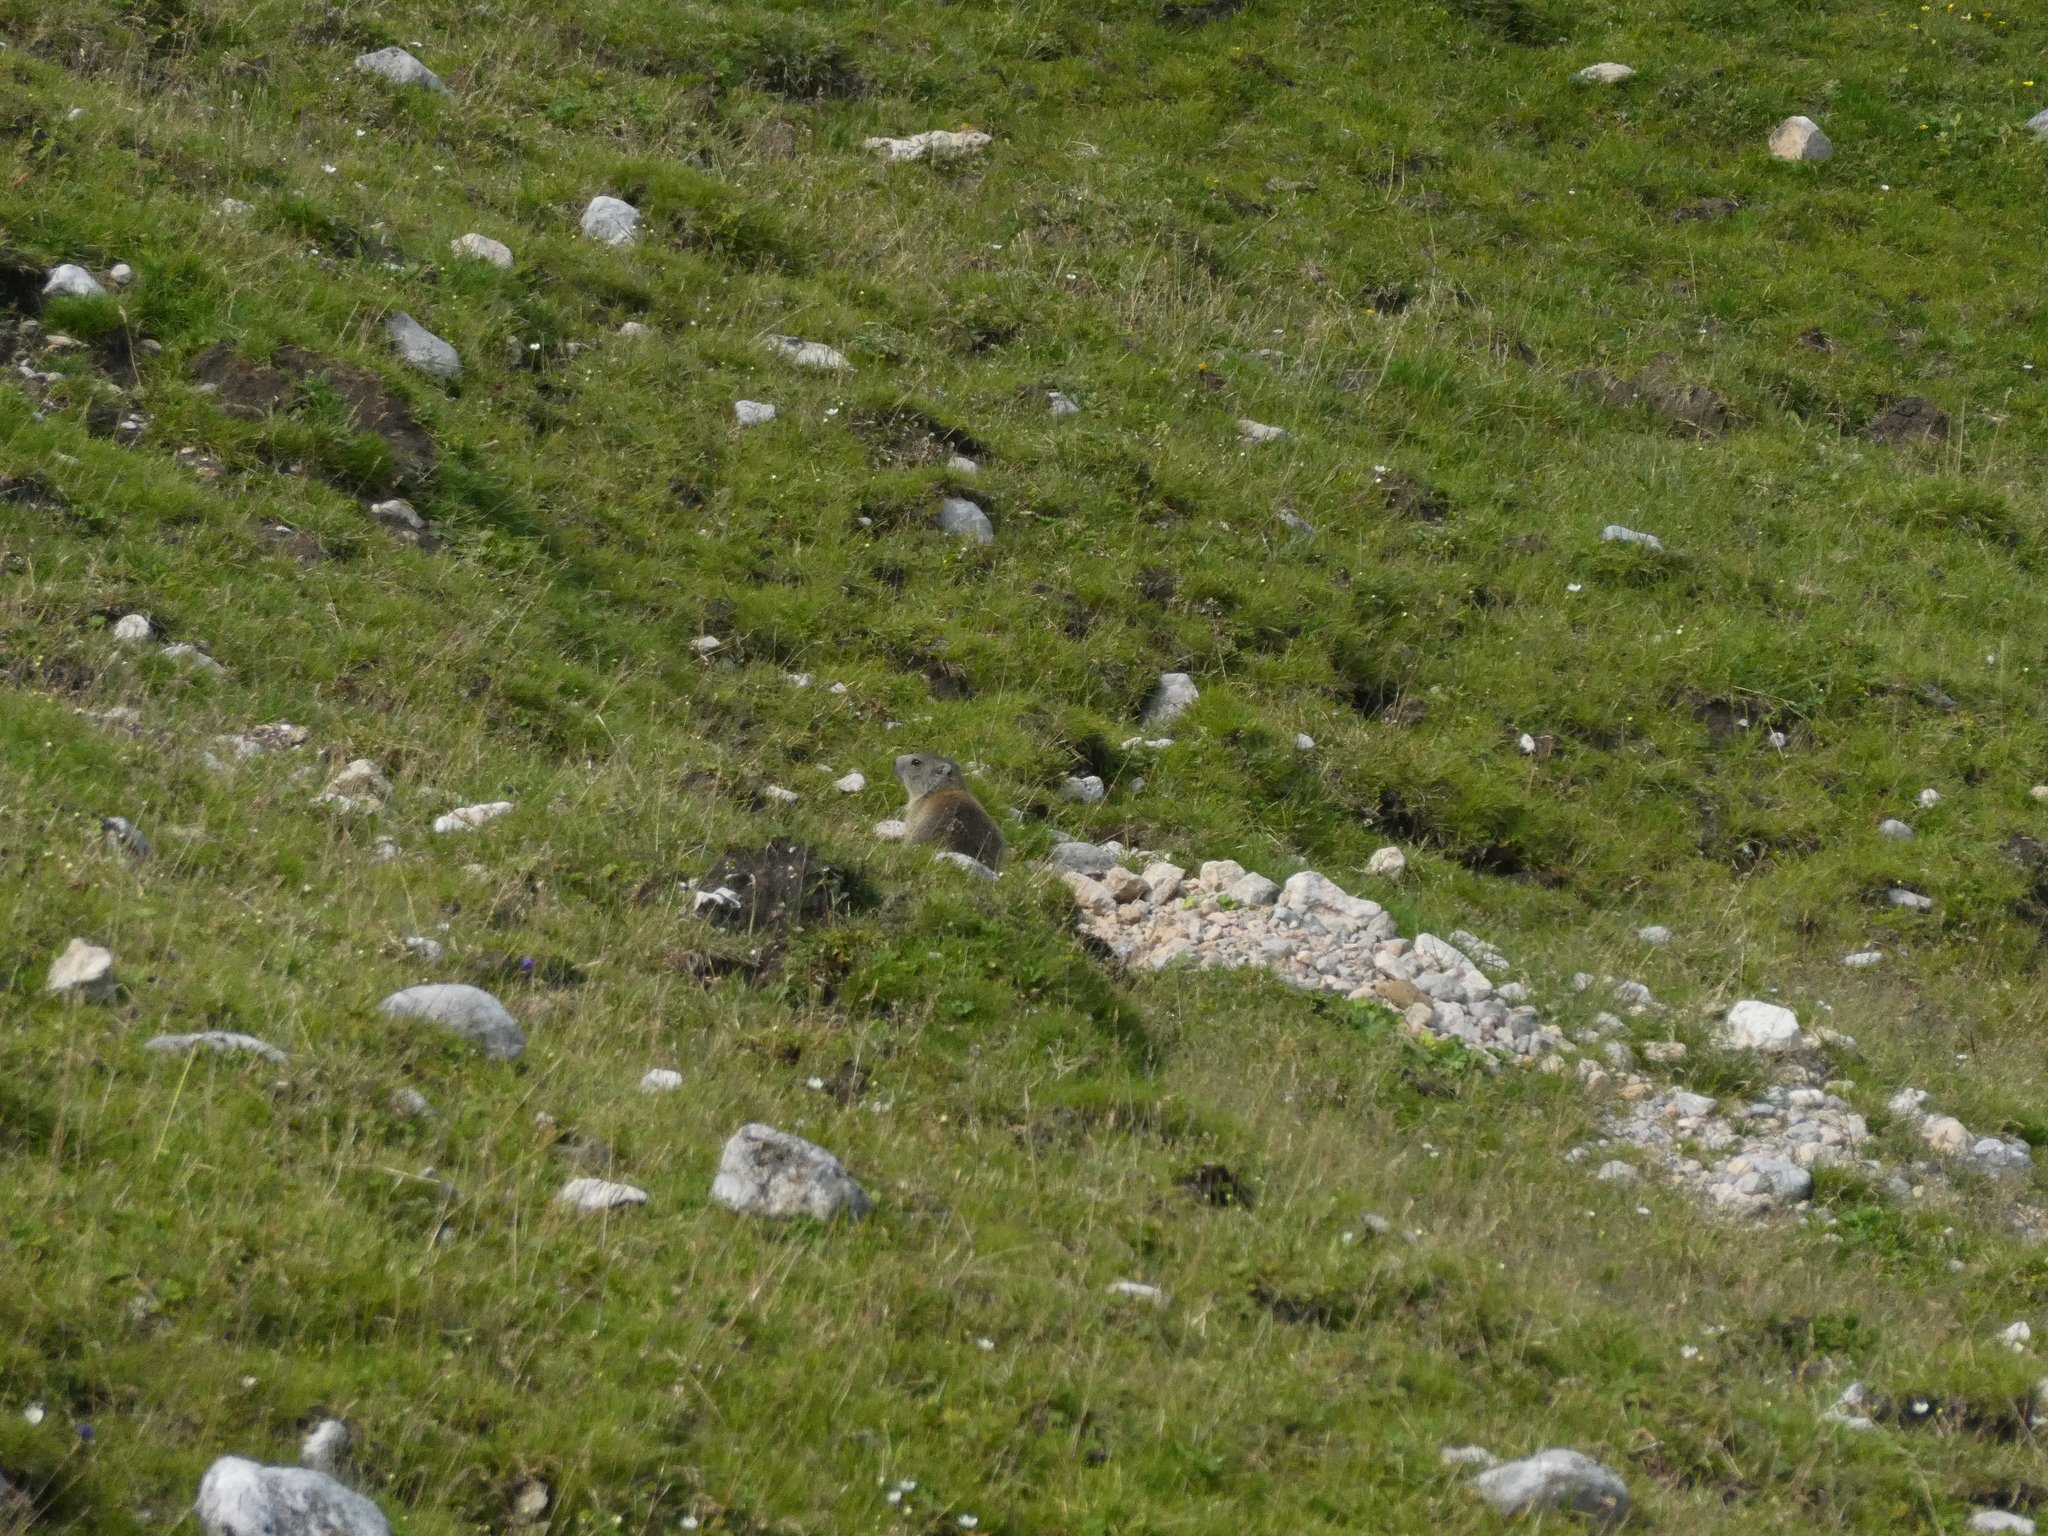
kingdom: Animalia
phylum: Chordata
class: Mammalia
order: Rodentia
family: Sciuridae
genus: Marmota
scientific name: Marmota marmota
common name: Alpine marmot
